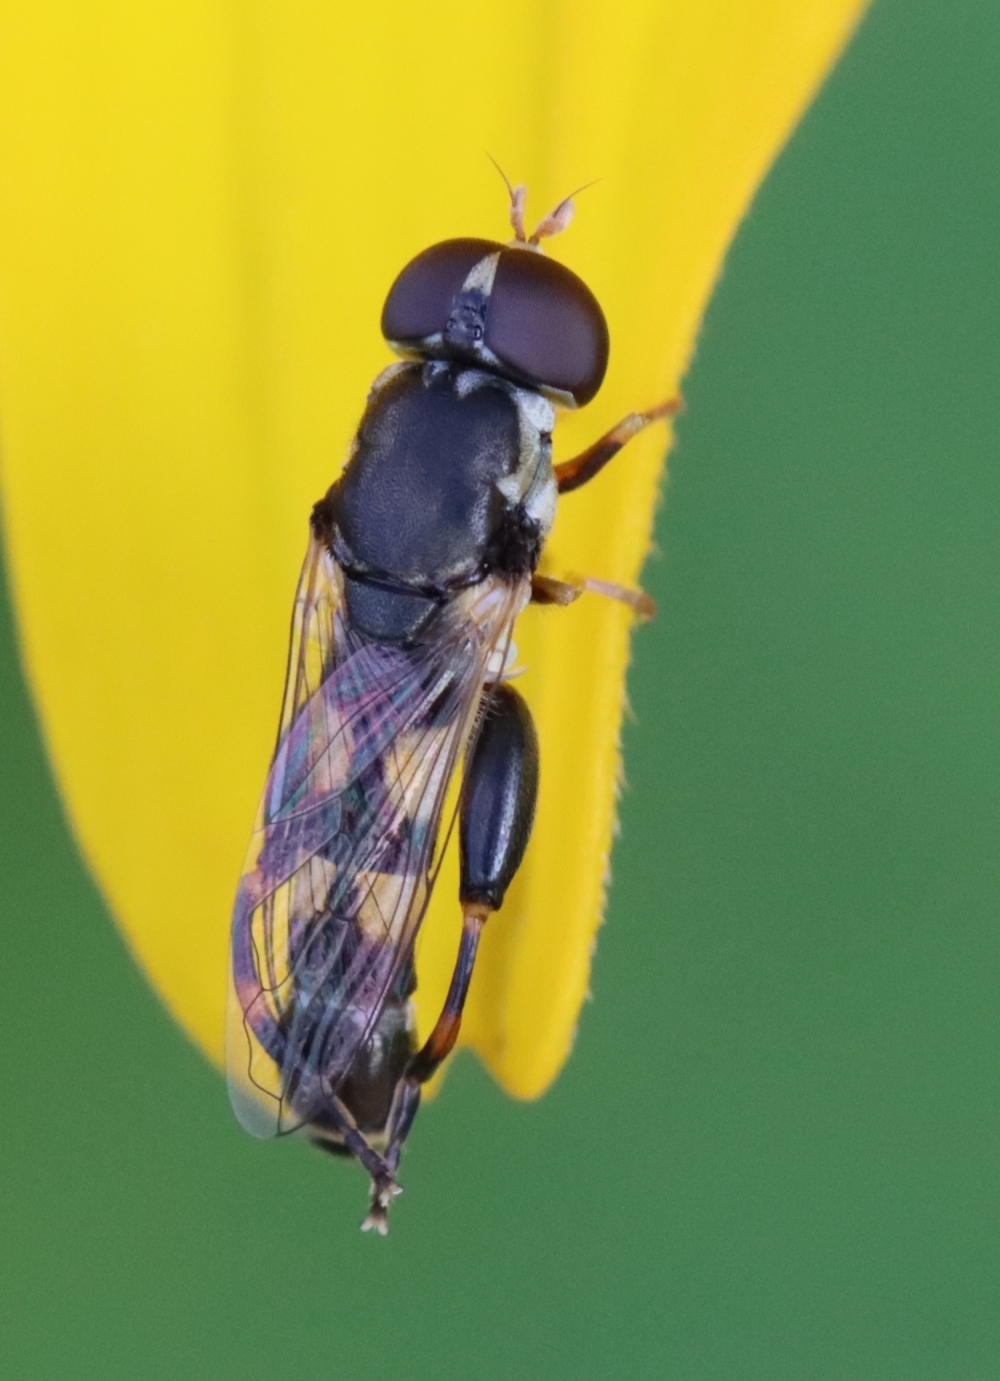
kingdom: Animalia
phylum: Arthropoda
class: Insecta
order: Diptera
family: Syrphidae
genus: Syritta
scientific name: Syritta pipiens
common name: Hover fly
